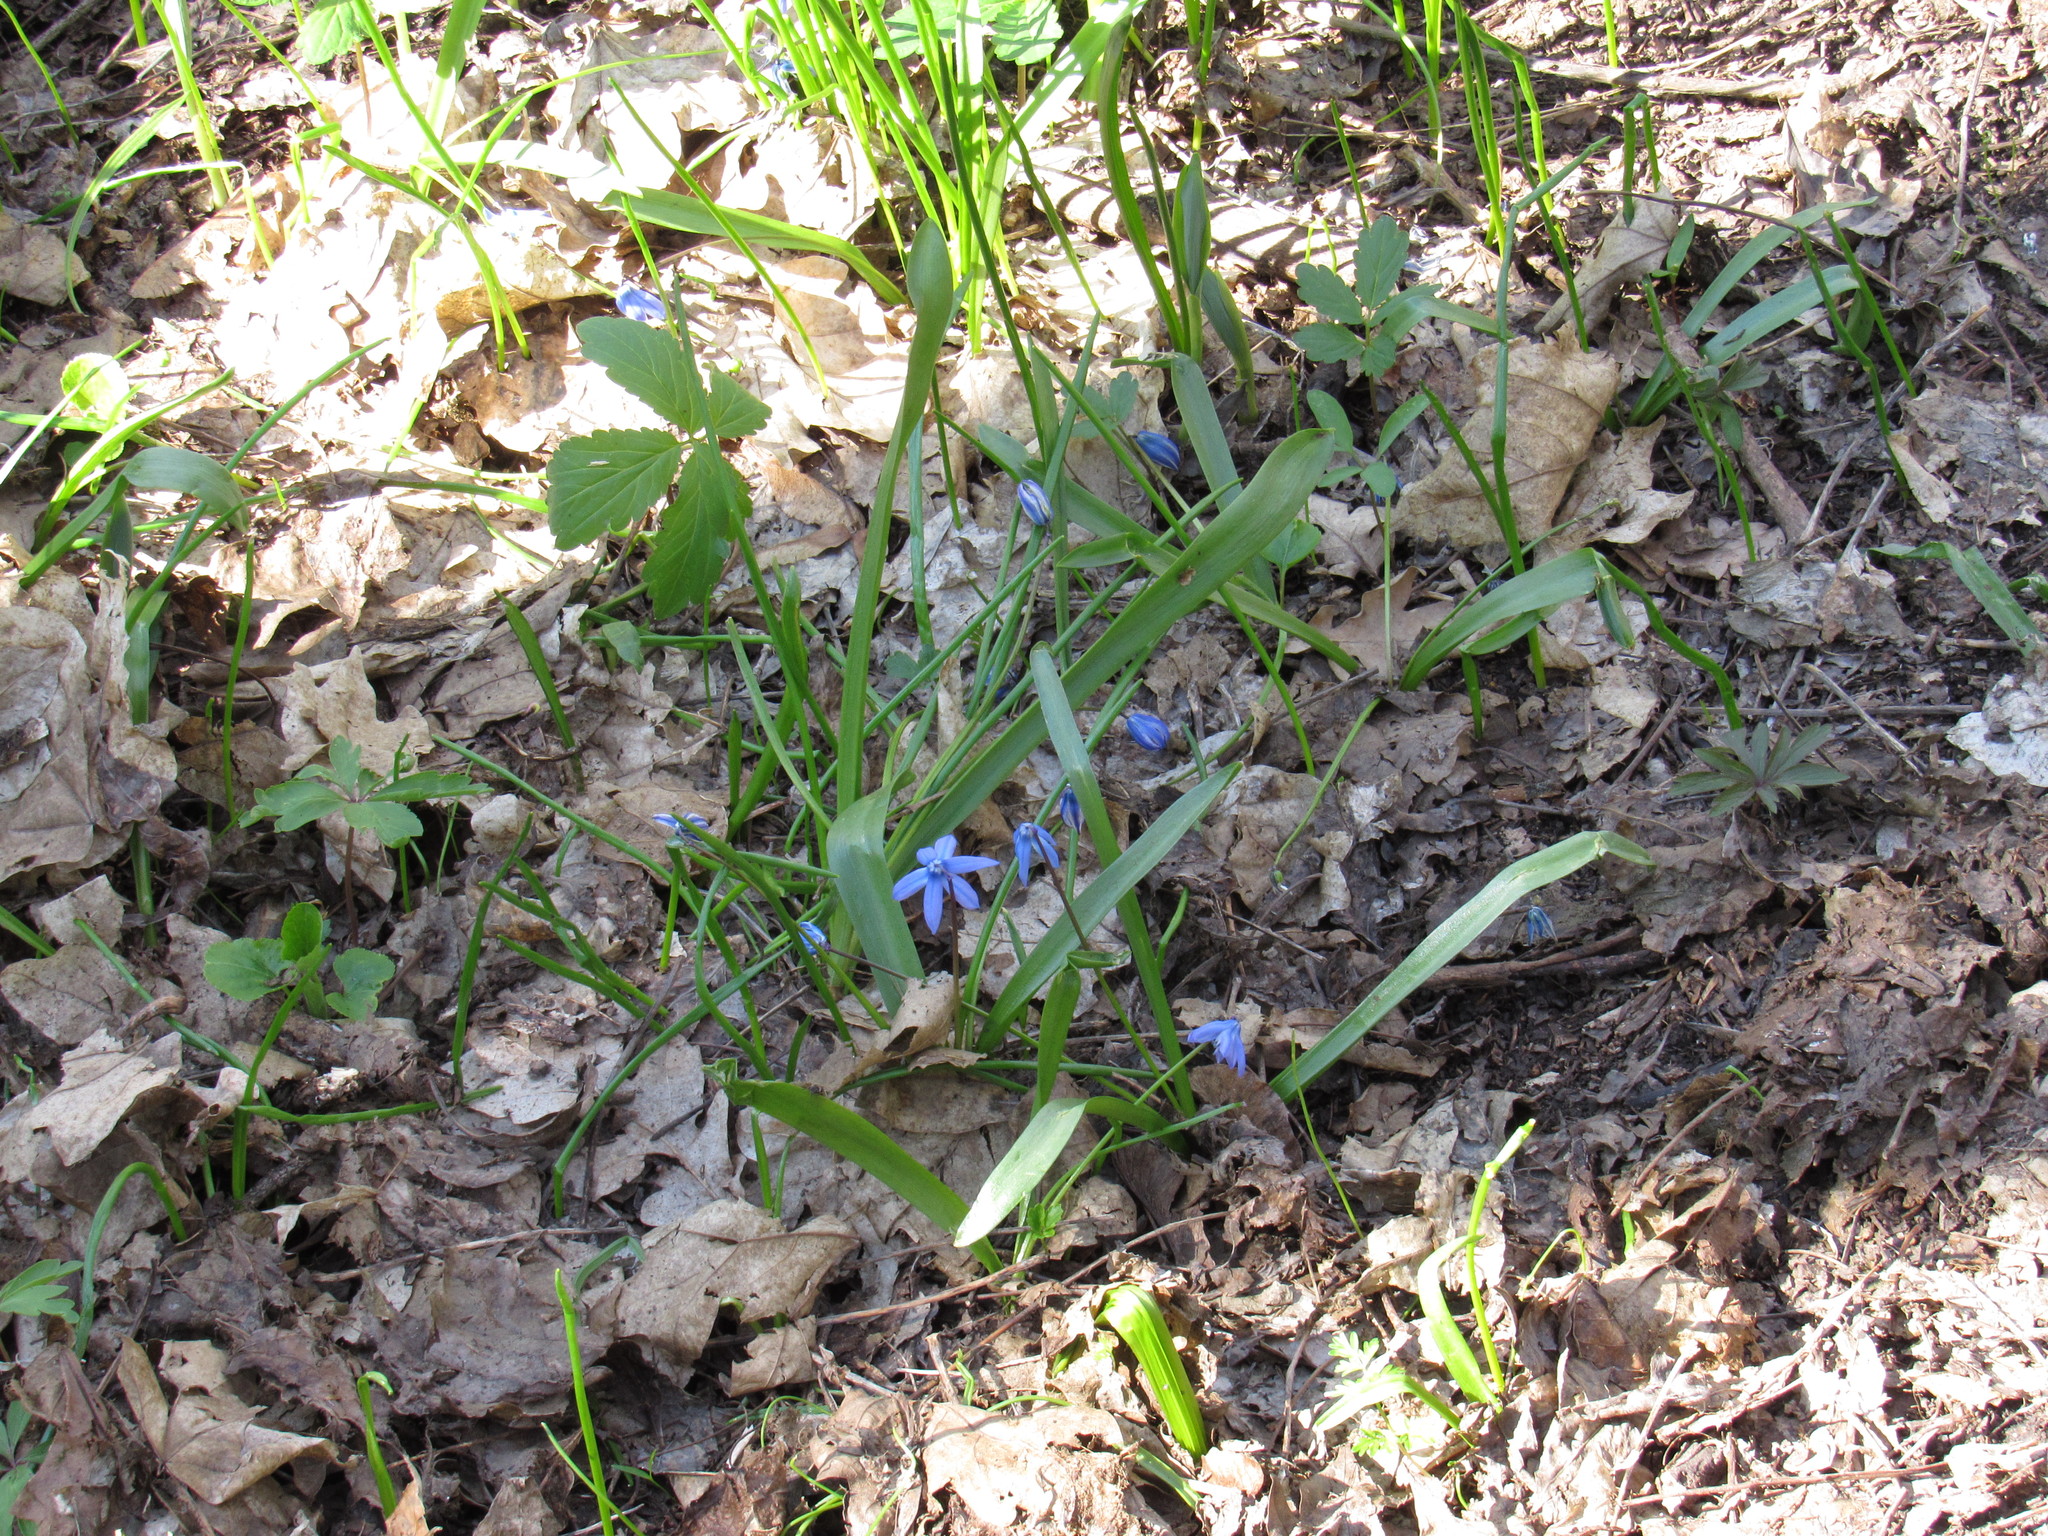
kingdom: Plantae
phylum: Tracheophyta
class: Liliopsida
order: Asparagales
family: Asparagaceae
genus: Scilla
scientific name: Scilla siberica
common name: Siberian squill
